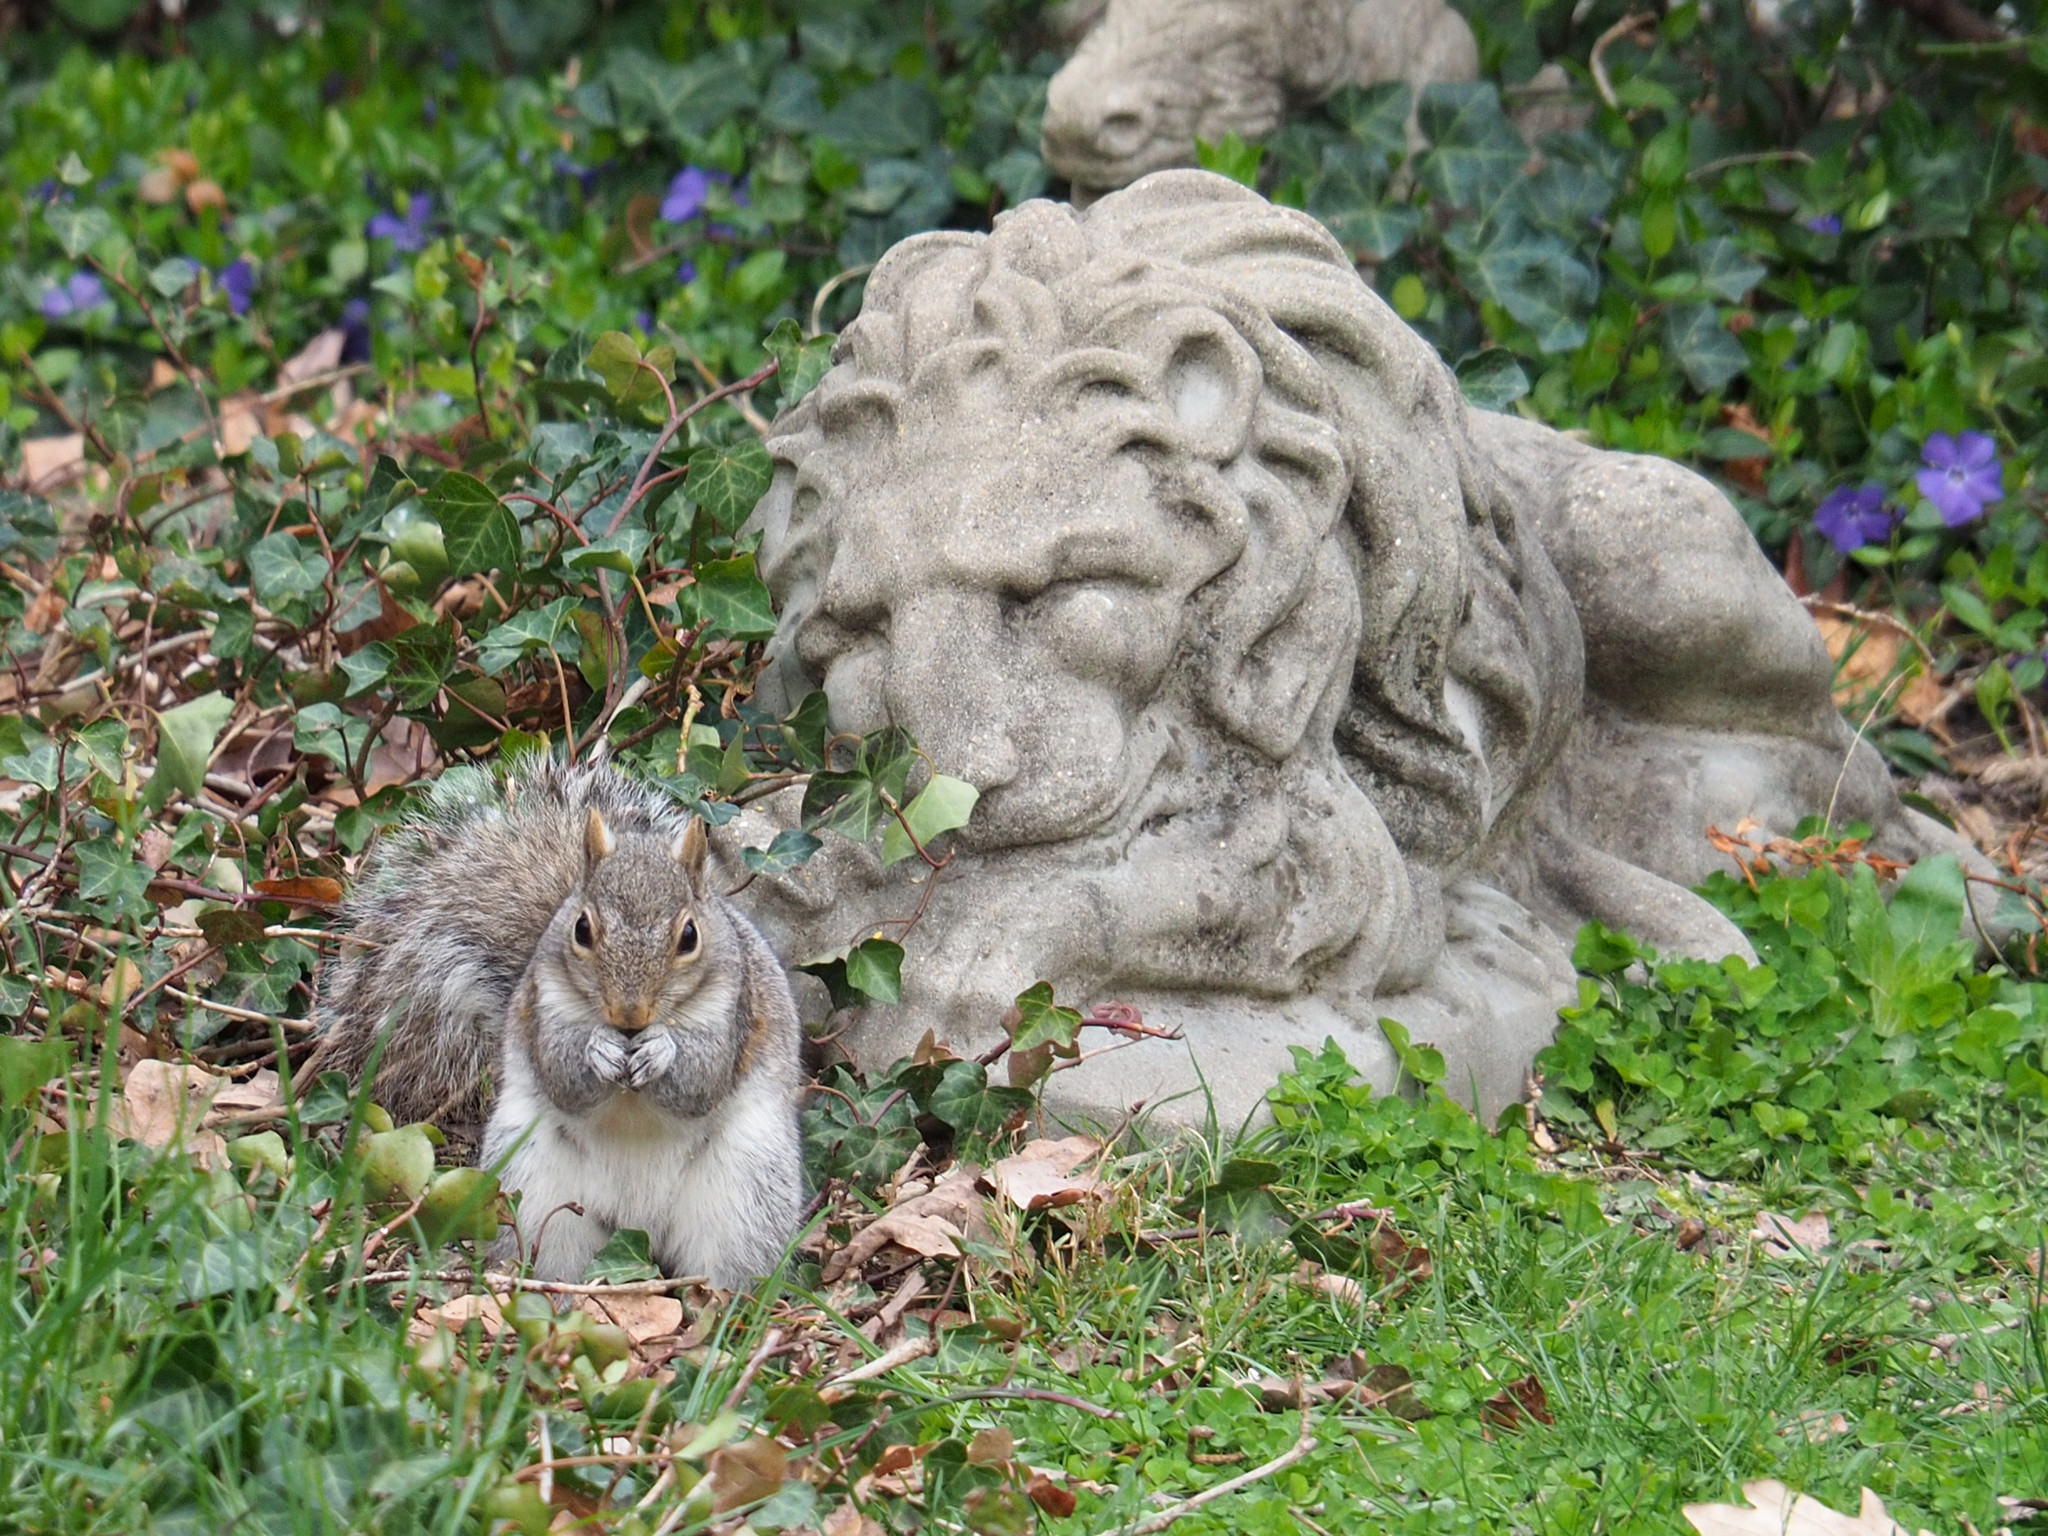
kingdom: Animalia
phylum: Chordata
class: Mammalia
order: Rodentia
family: Sciuridae
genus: Sciurus
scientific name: Sciurus carolinensis
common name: Eastern gray squirrel
